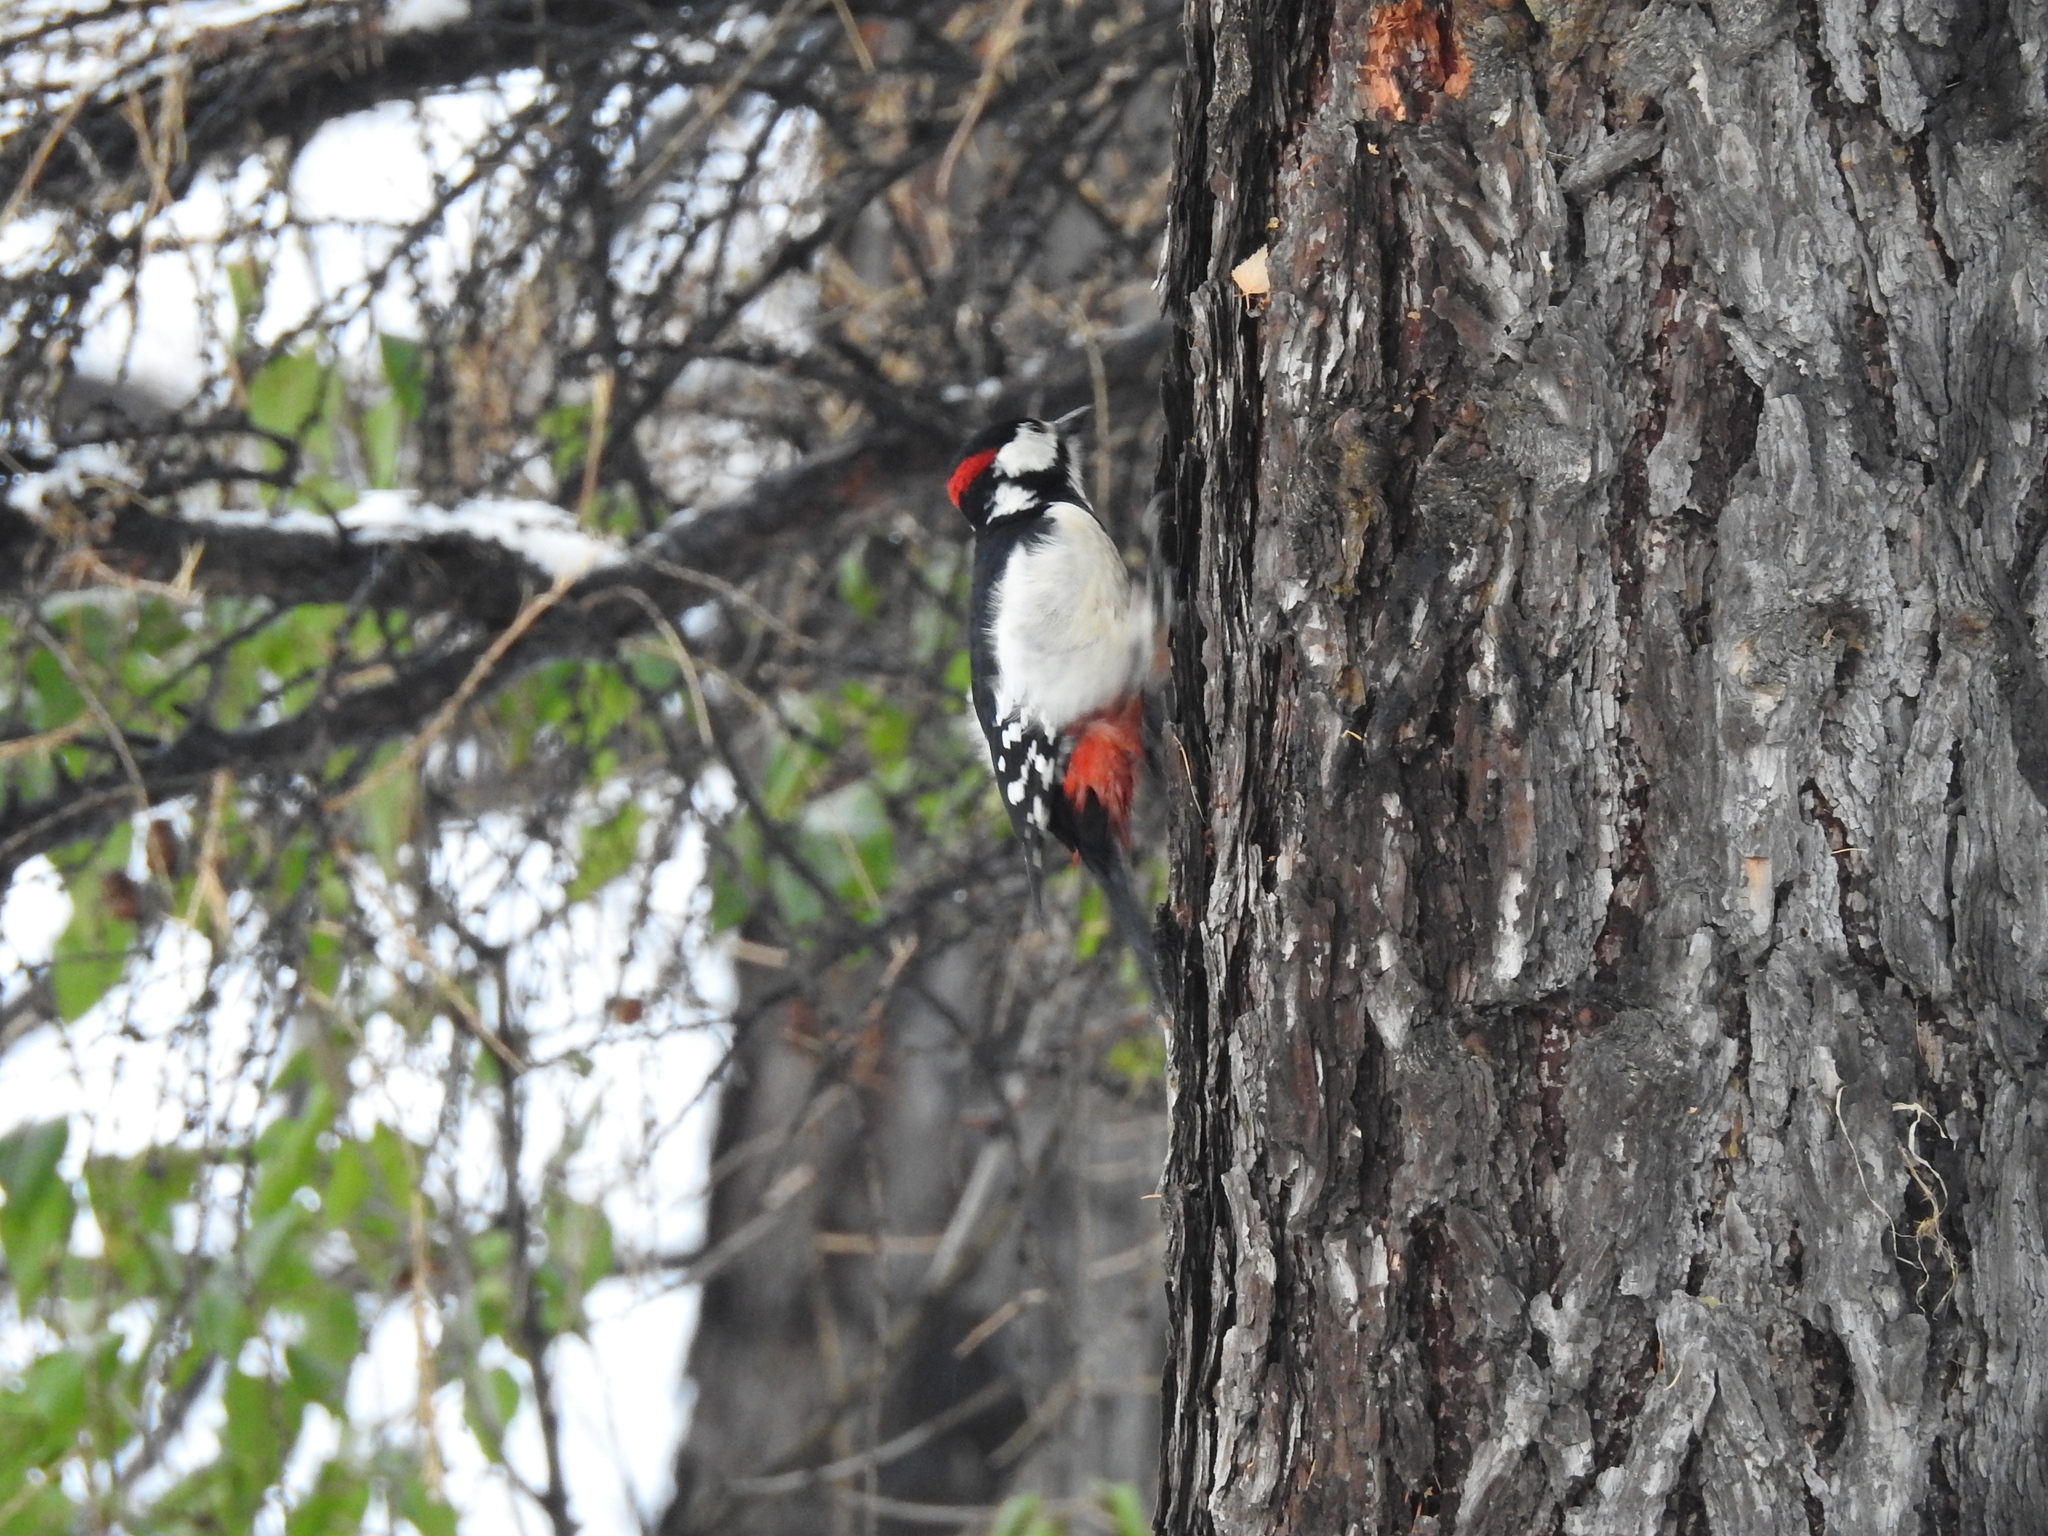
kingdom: Animalia
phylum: Chordata
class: Aves
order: Piciformes
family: Picidae
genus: Dendrocopos
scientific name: Dendrocopos major
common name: Great spotted woodpecker
